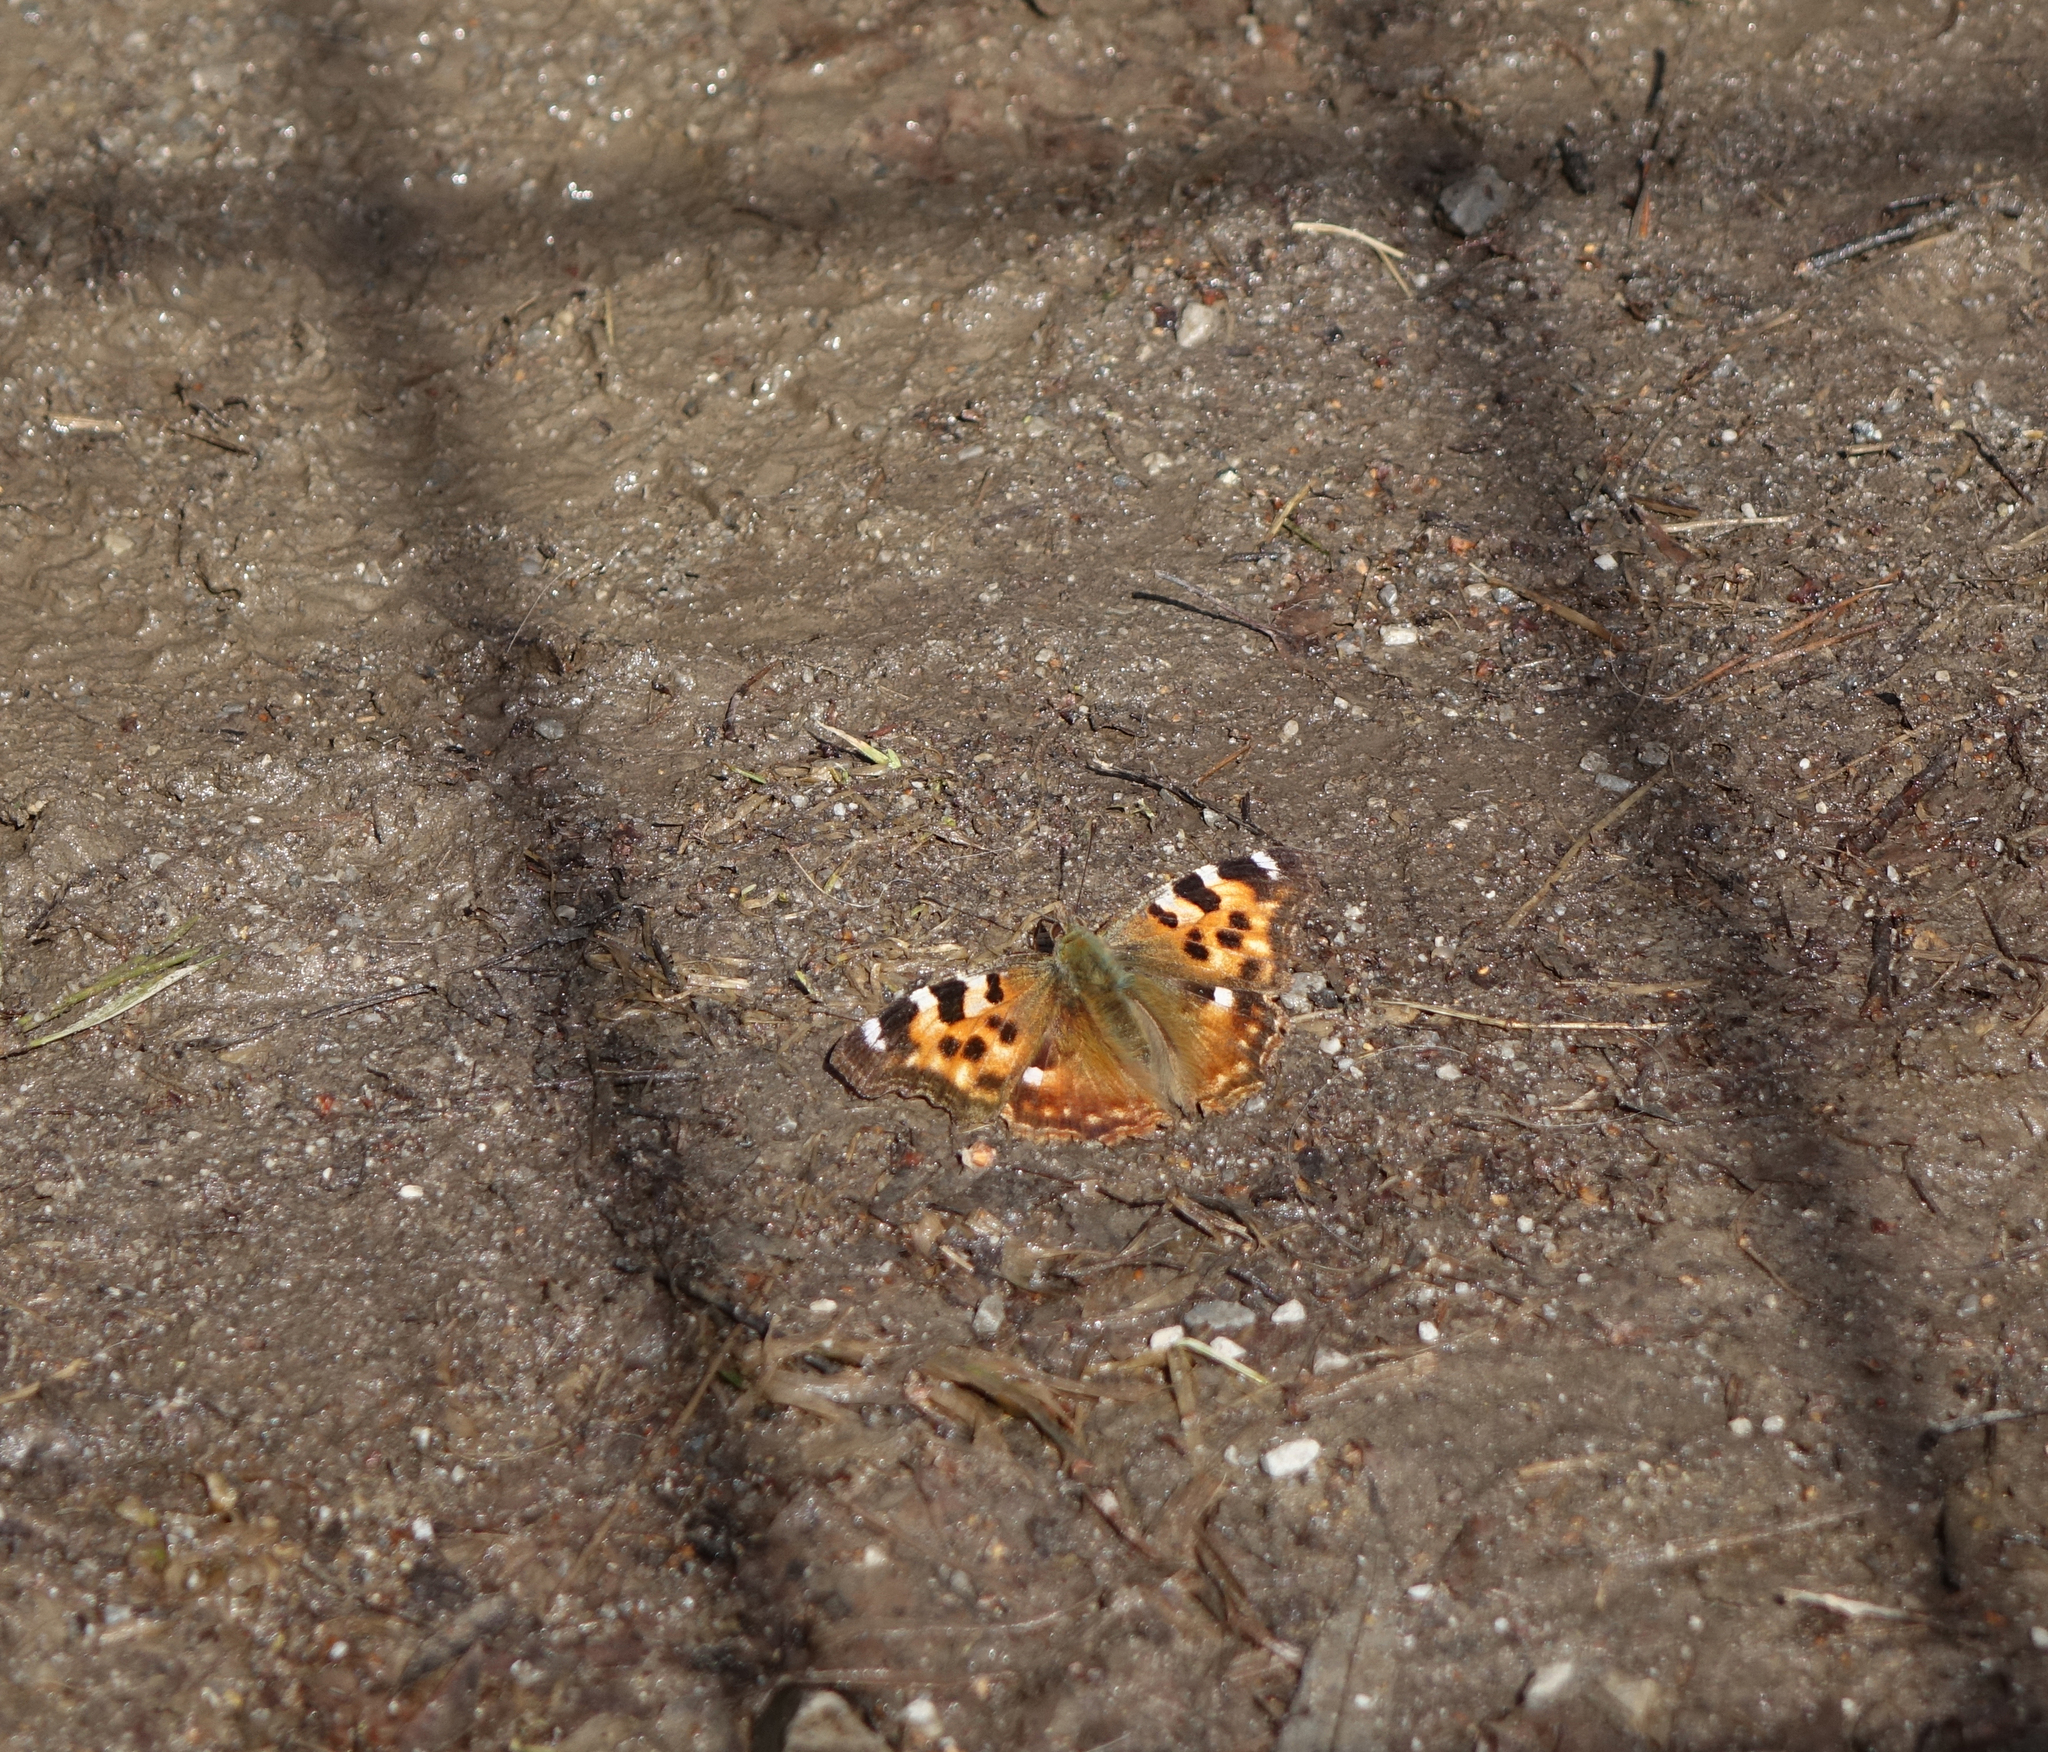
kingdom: Animalia
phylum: Arthropoda
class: Insecta
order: Lepidoptera
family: Nymphalidae
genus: Polygonia
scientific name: Polygonia vaualbum
